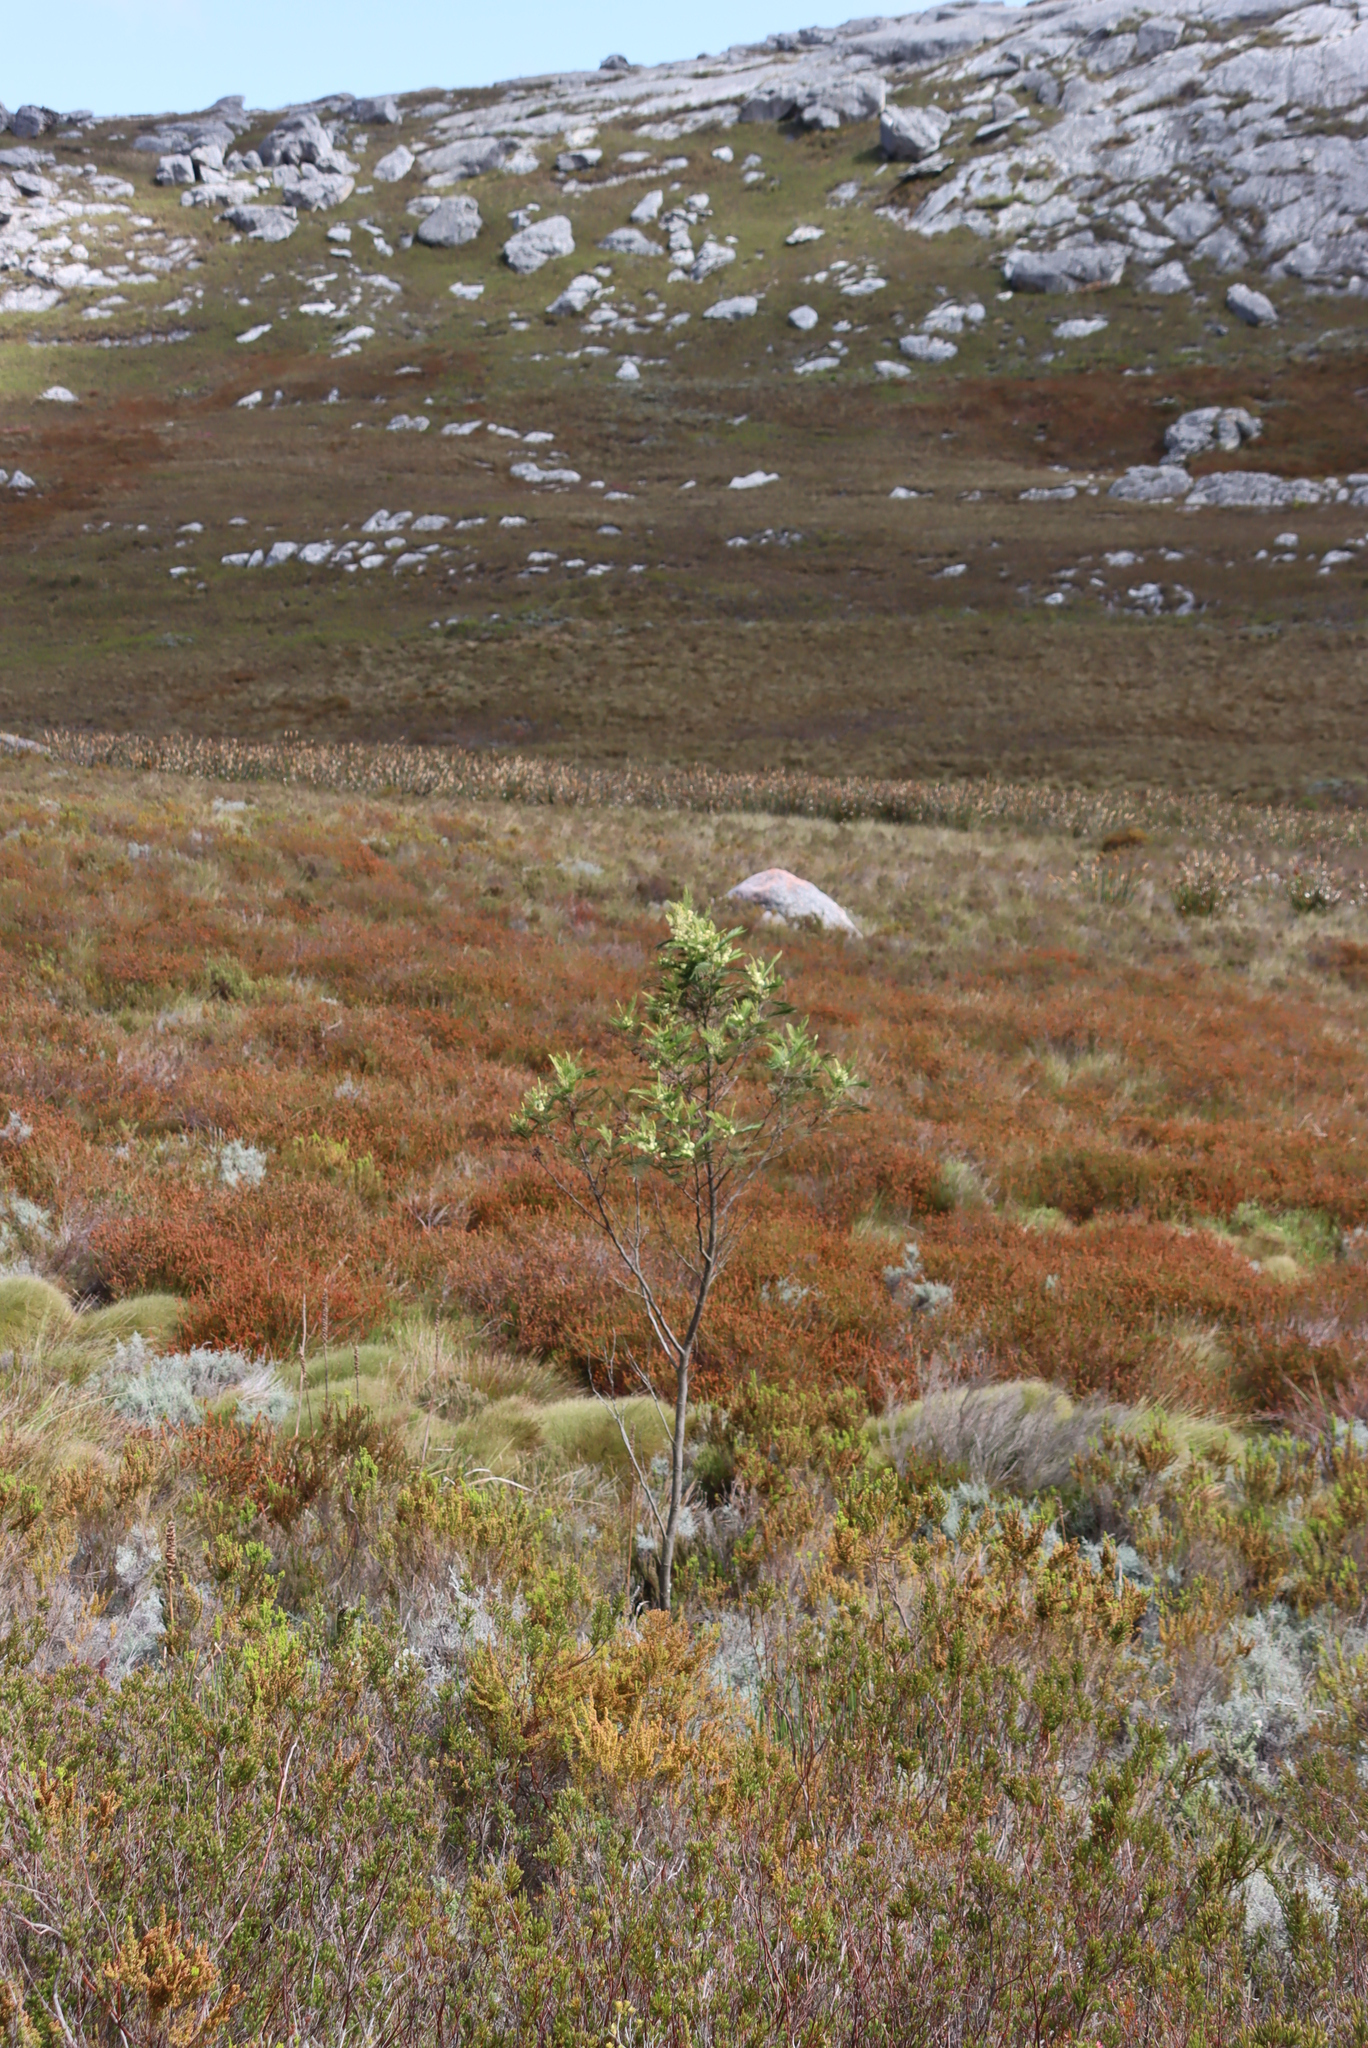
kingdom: Plantae
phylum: Tracheophyta
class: Magnoliopsida
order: Fabales
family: Fabaceae
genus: Acacia
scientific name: Acacia mearnsii
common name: Black wattle
